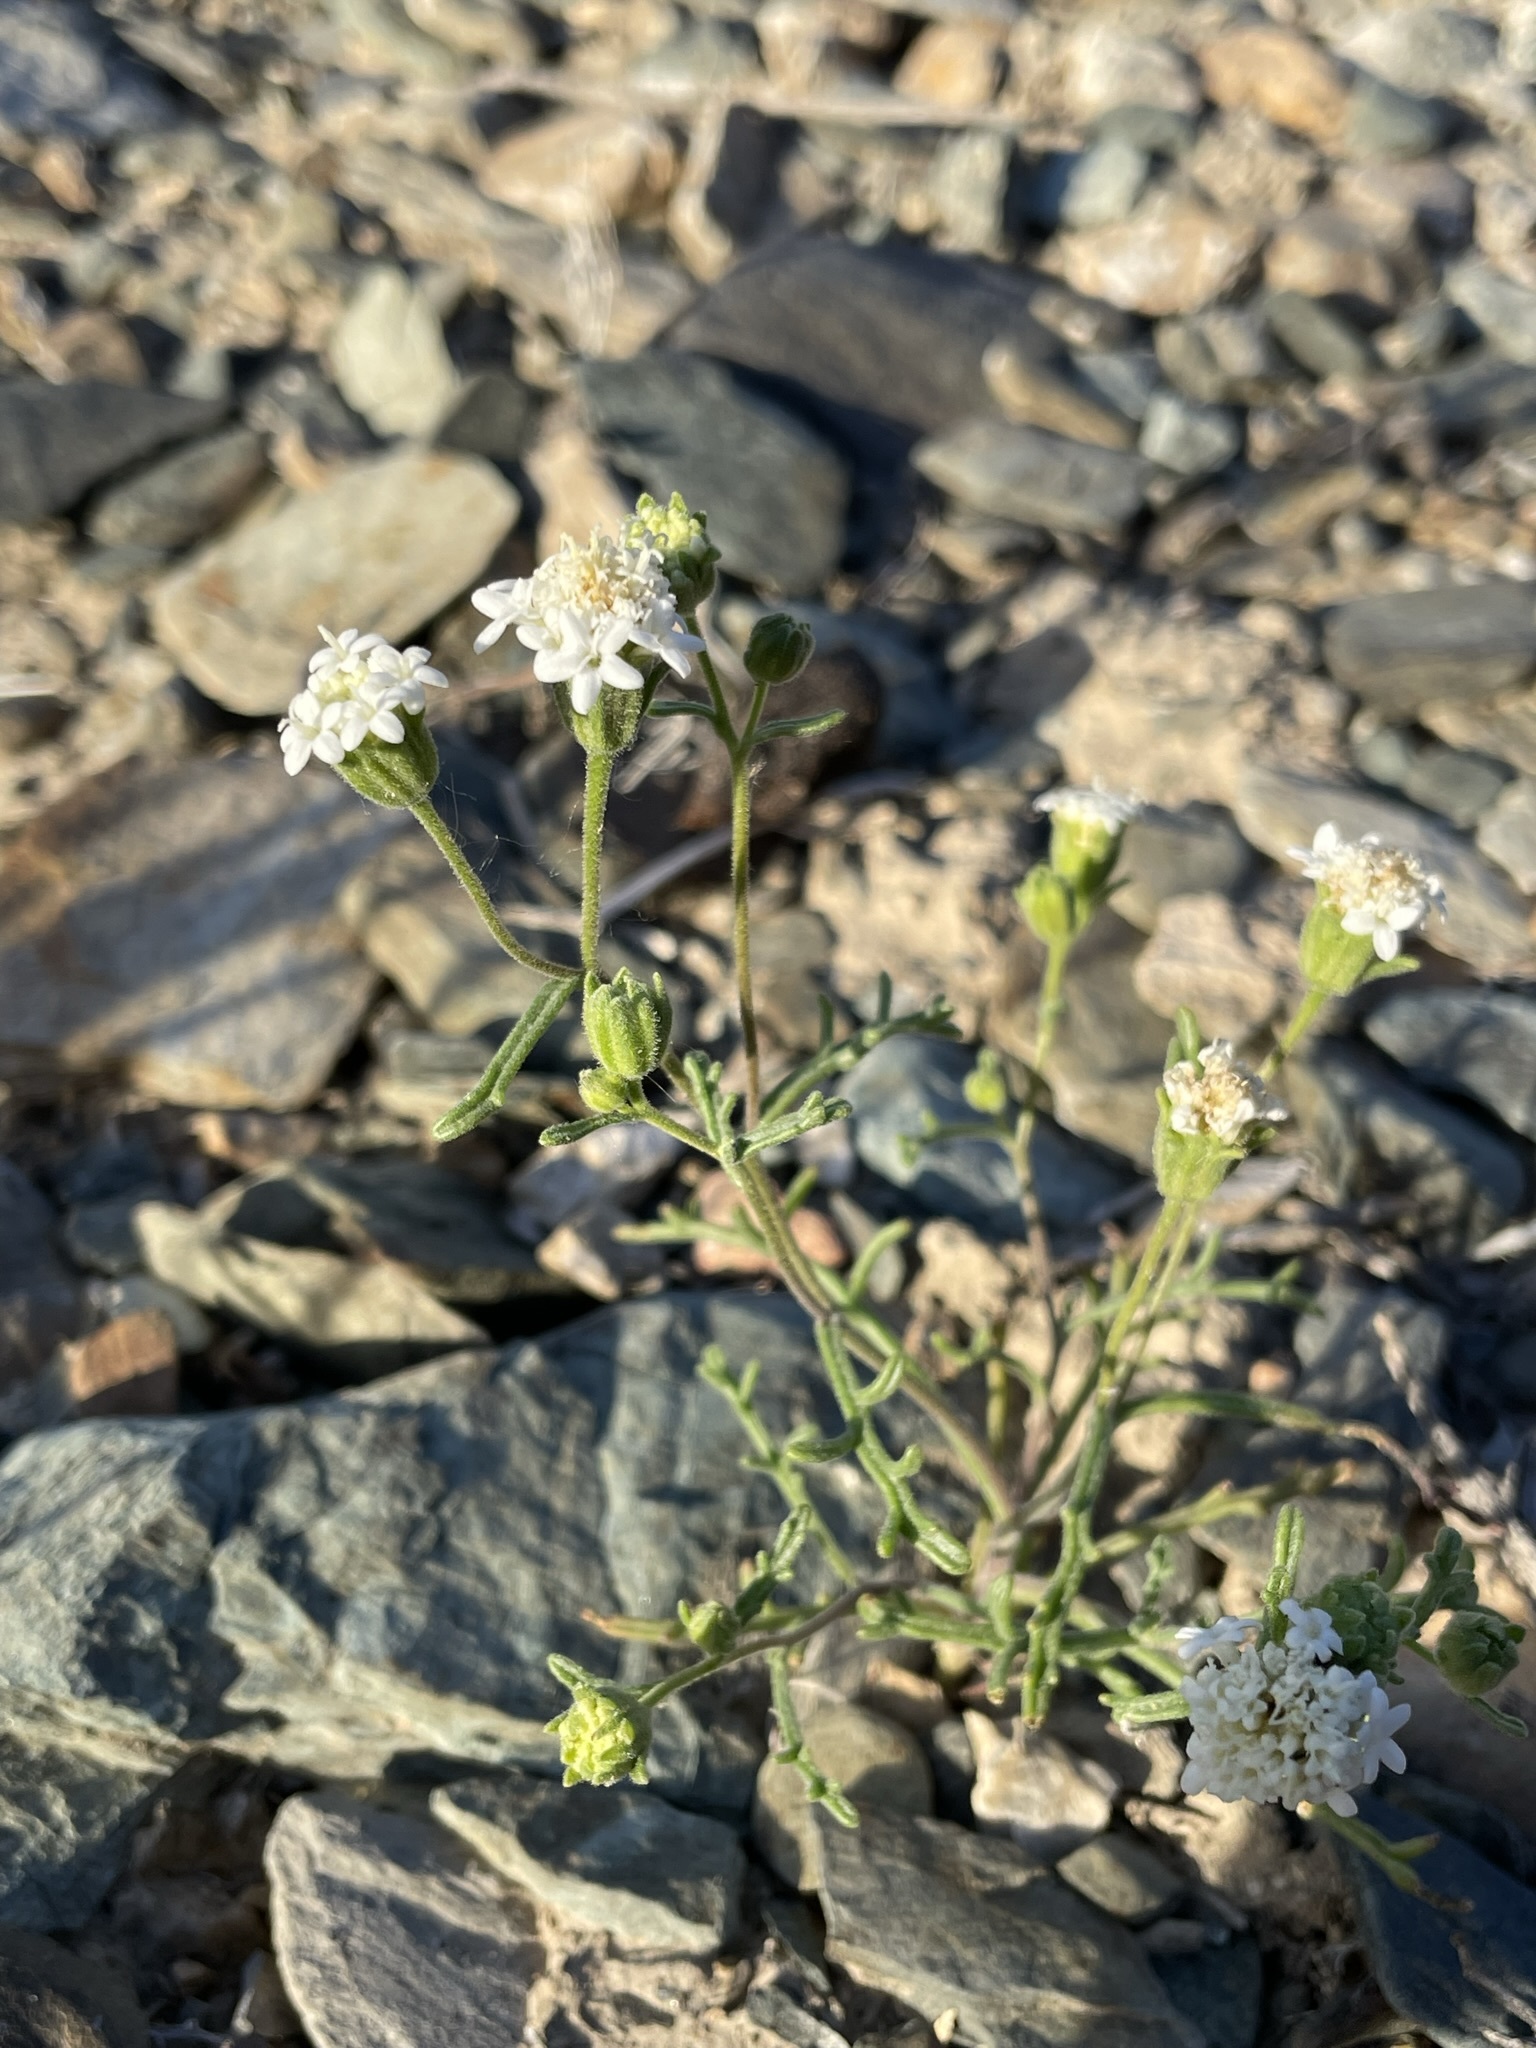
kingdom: Plantae
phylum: Tracheophyta
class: Magnoliopsida
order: Asterales
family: Asteraceae
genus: Chaenactis
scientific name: Chaenactis stevioides
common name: Desert pincushion
